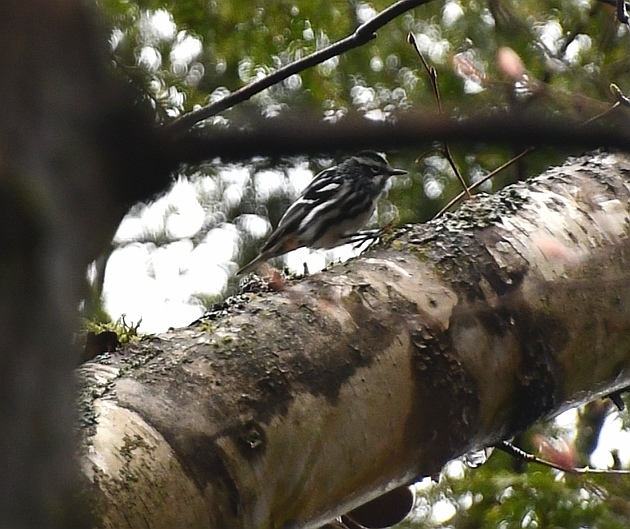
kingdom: Animalia
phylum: Chordata
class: Aves
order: Passeriformes
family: Parulidae
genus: Mniotilta
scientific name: Mniotilta varia
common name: Black-and-white warbler
